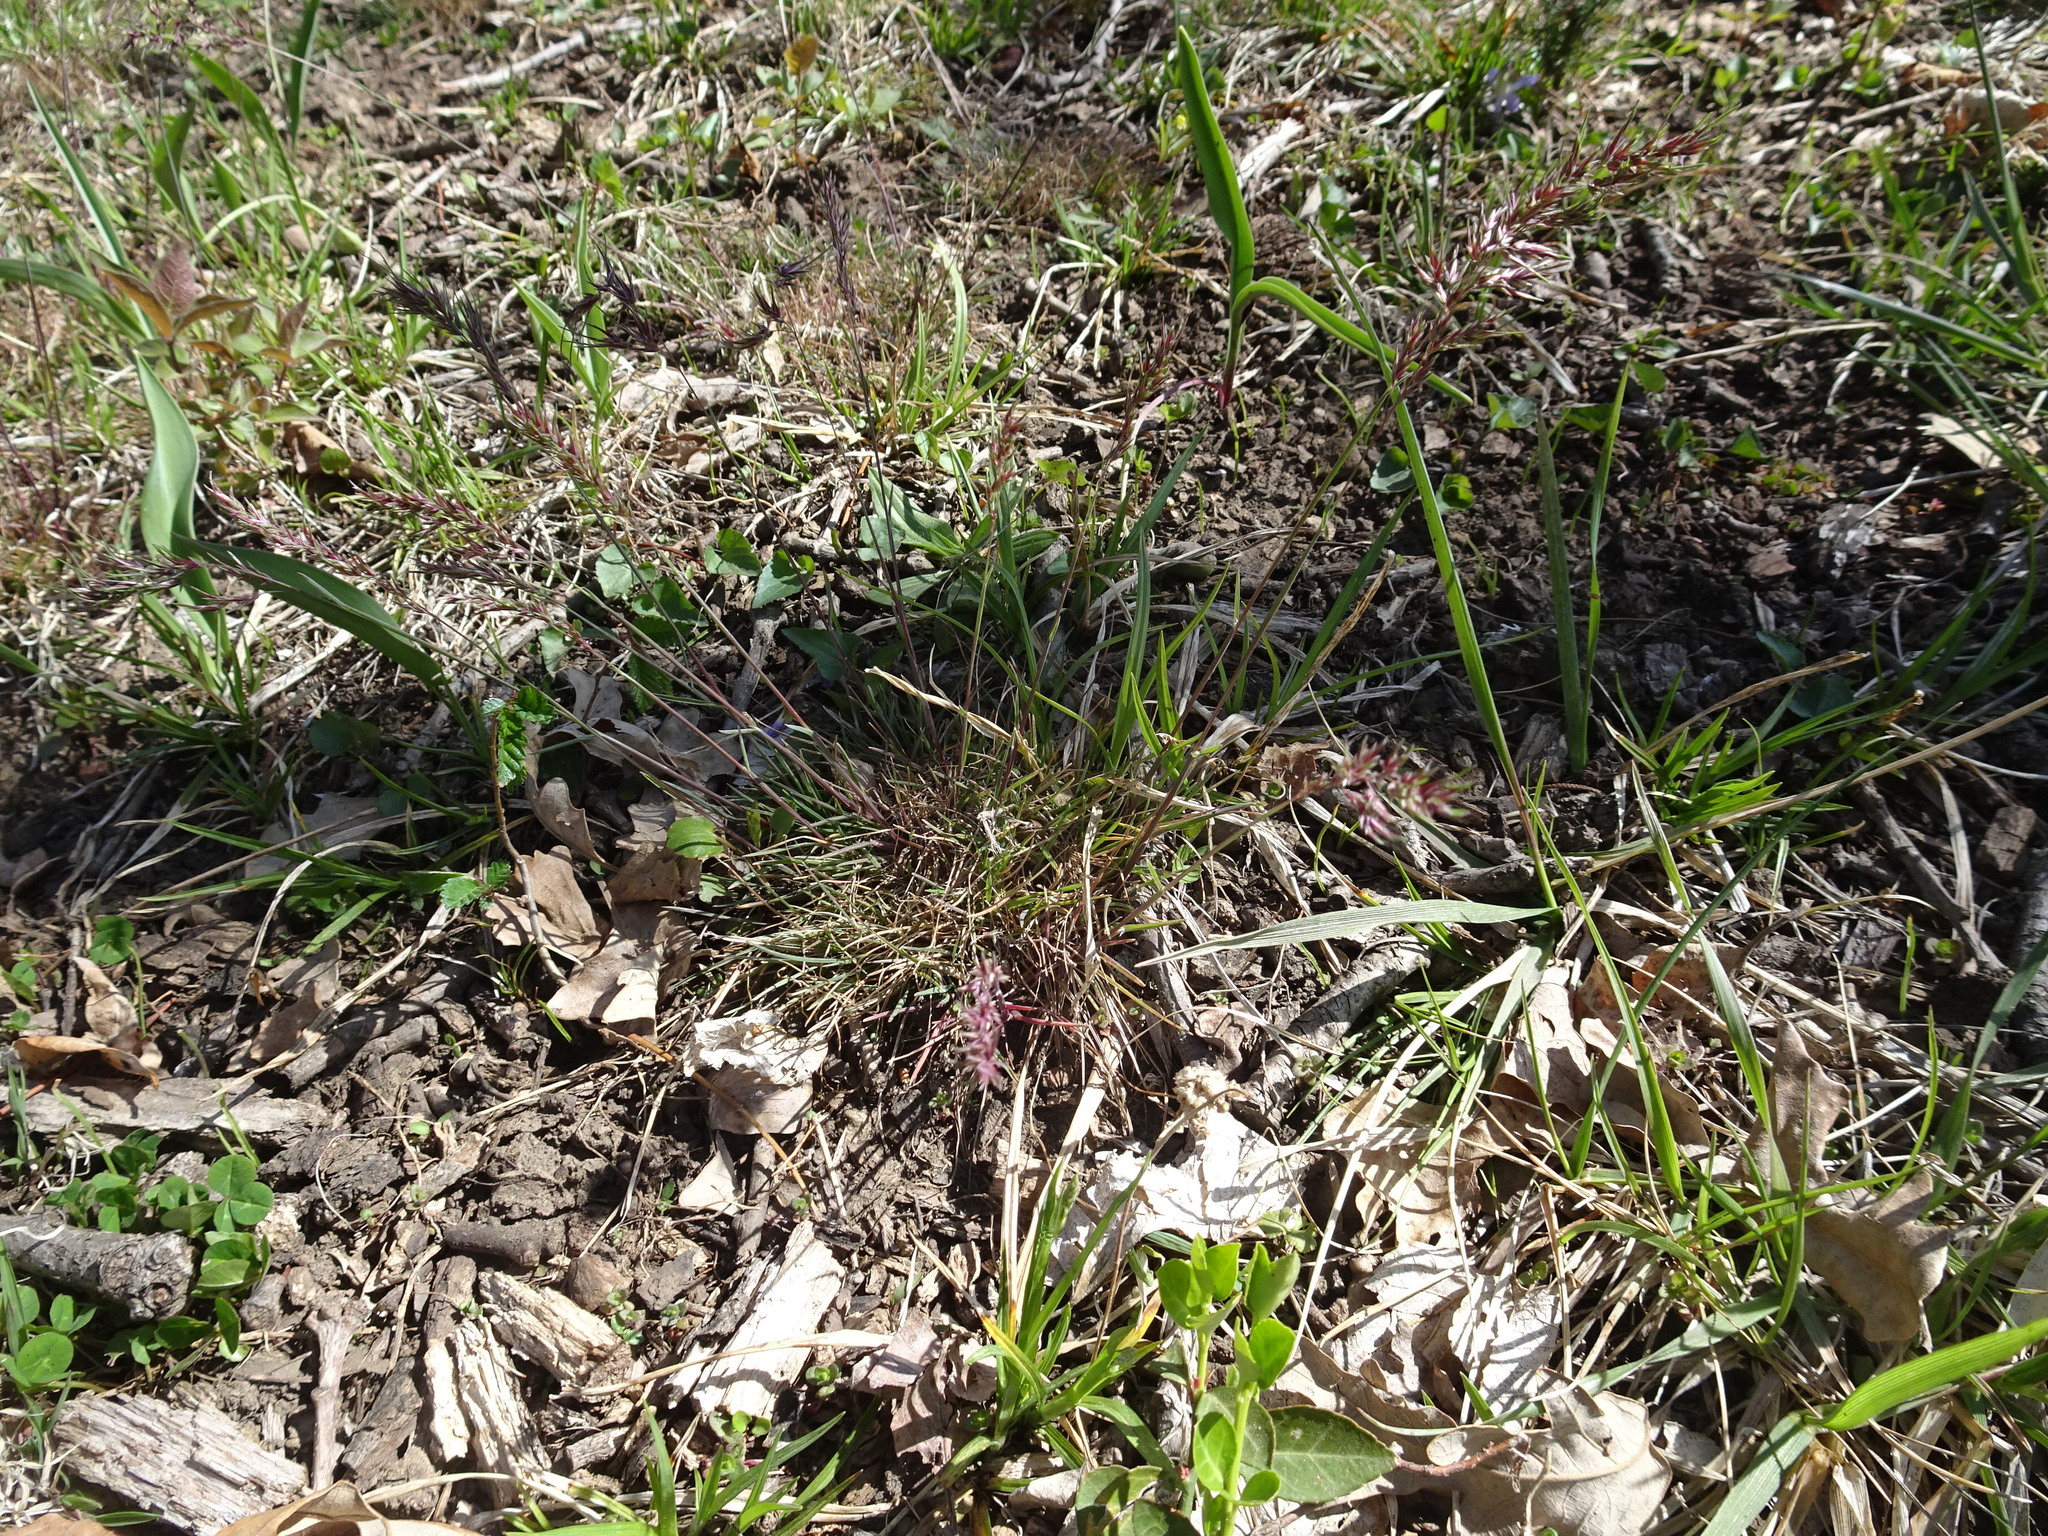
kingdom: Plantae
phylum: Tracheophyta
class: Liliopsida
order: Poales
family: Poaceae
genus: Poa
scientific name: Poa bulbosa
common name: Bulbous bluegrass
